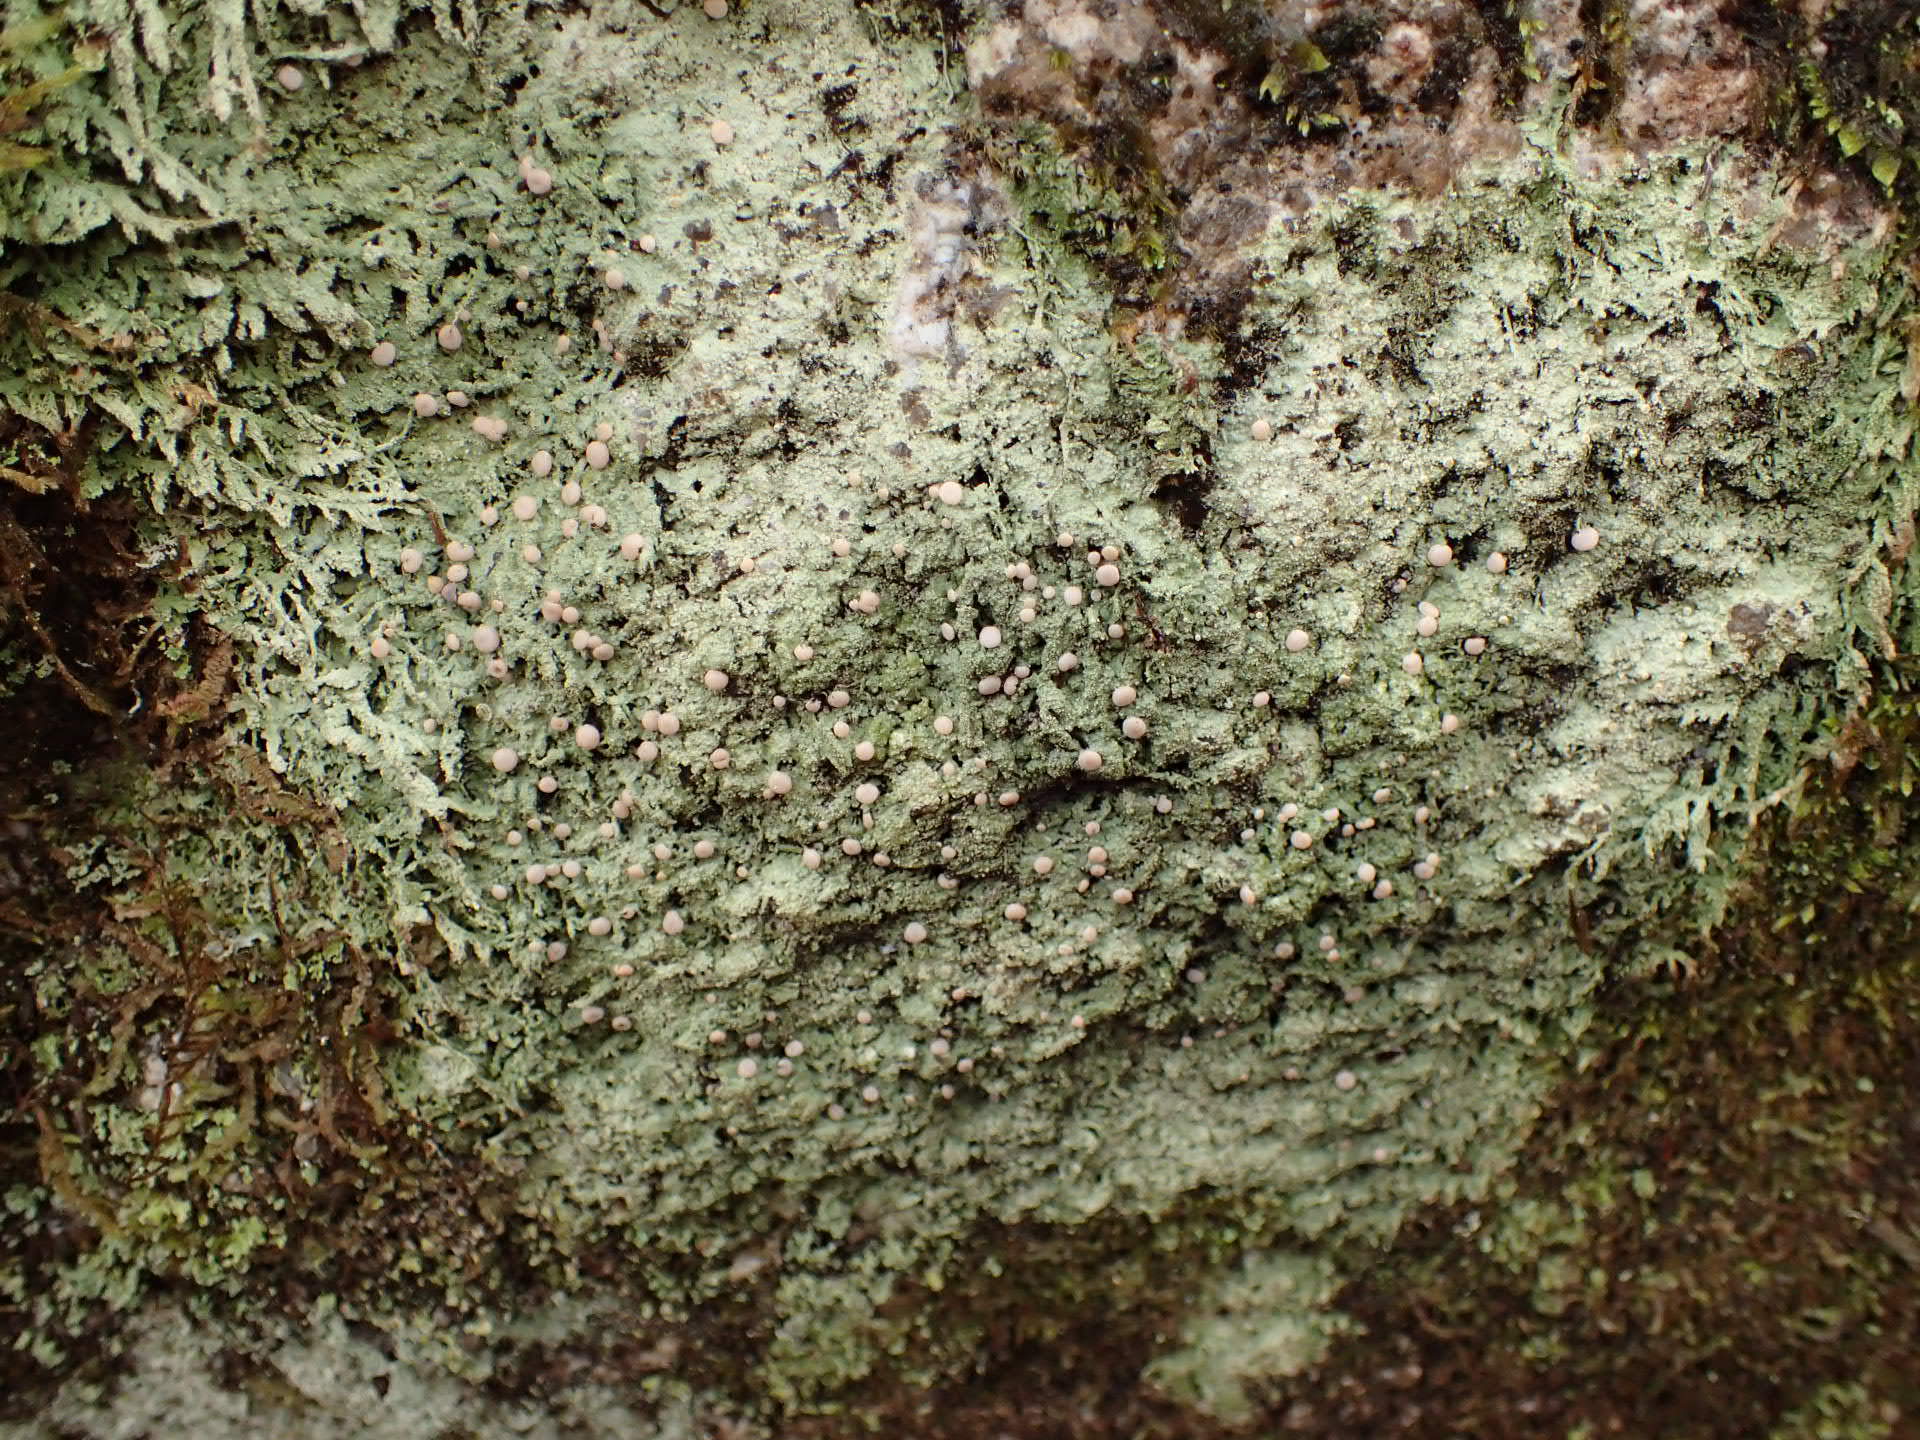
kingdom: Fungi
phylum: Ascomycota
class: Lecanoromycetes
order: Pertusariales
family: Icmadophilaceae
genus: Icmadophila
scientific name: Icmadophila ericetorum
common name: Candy lichen
